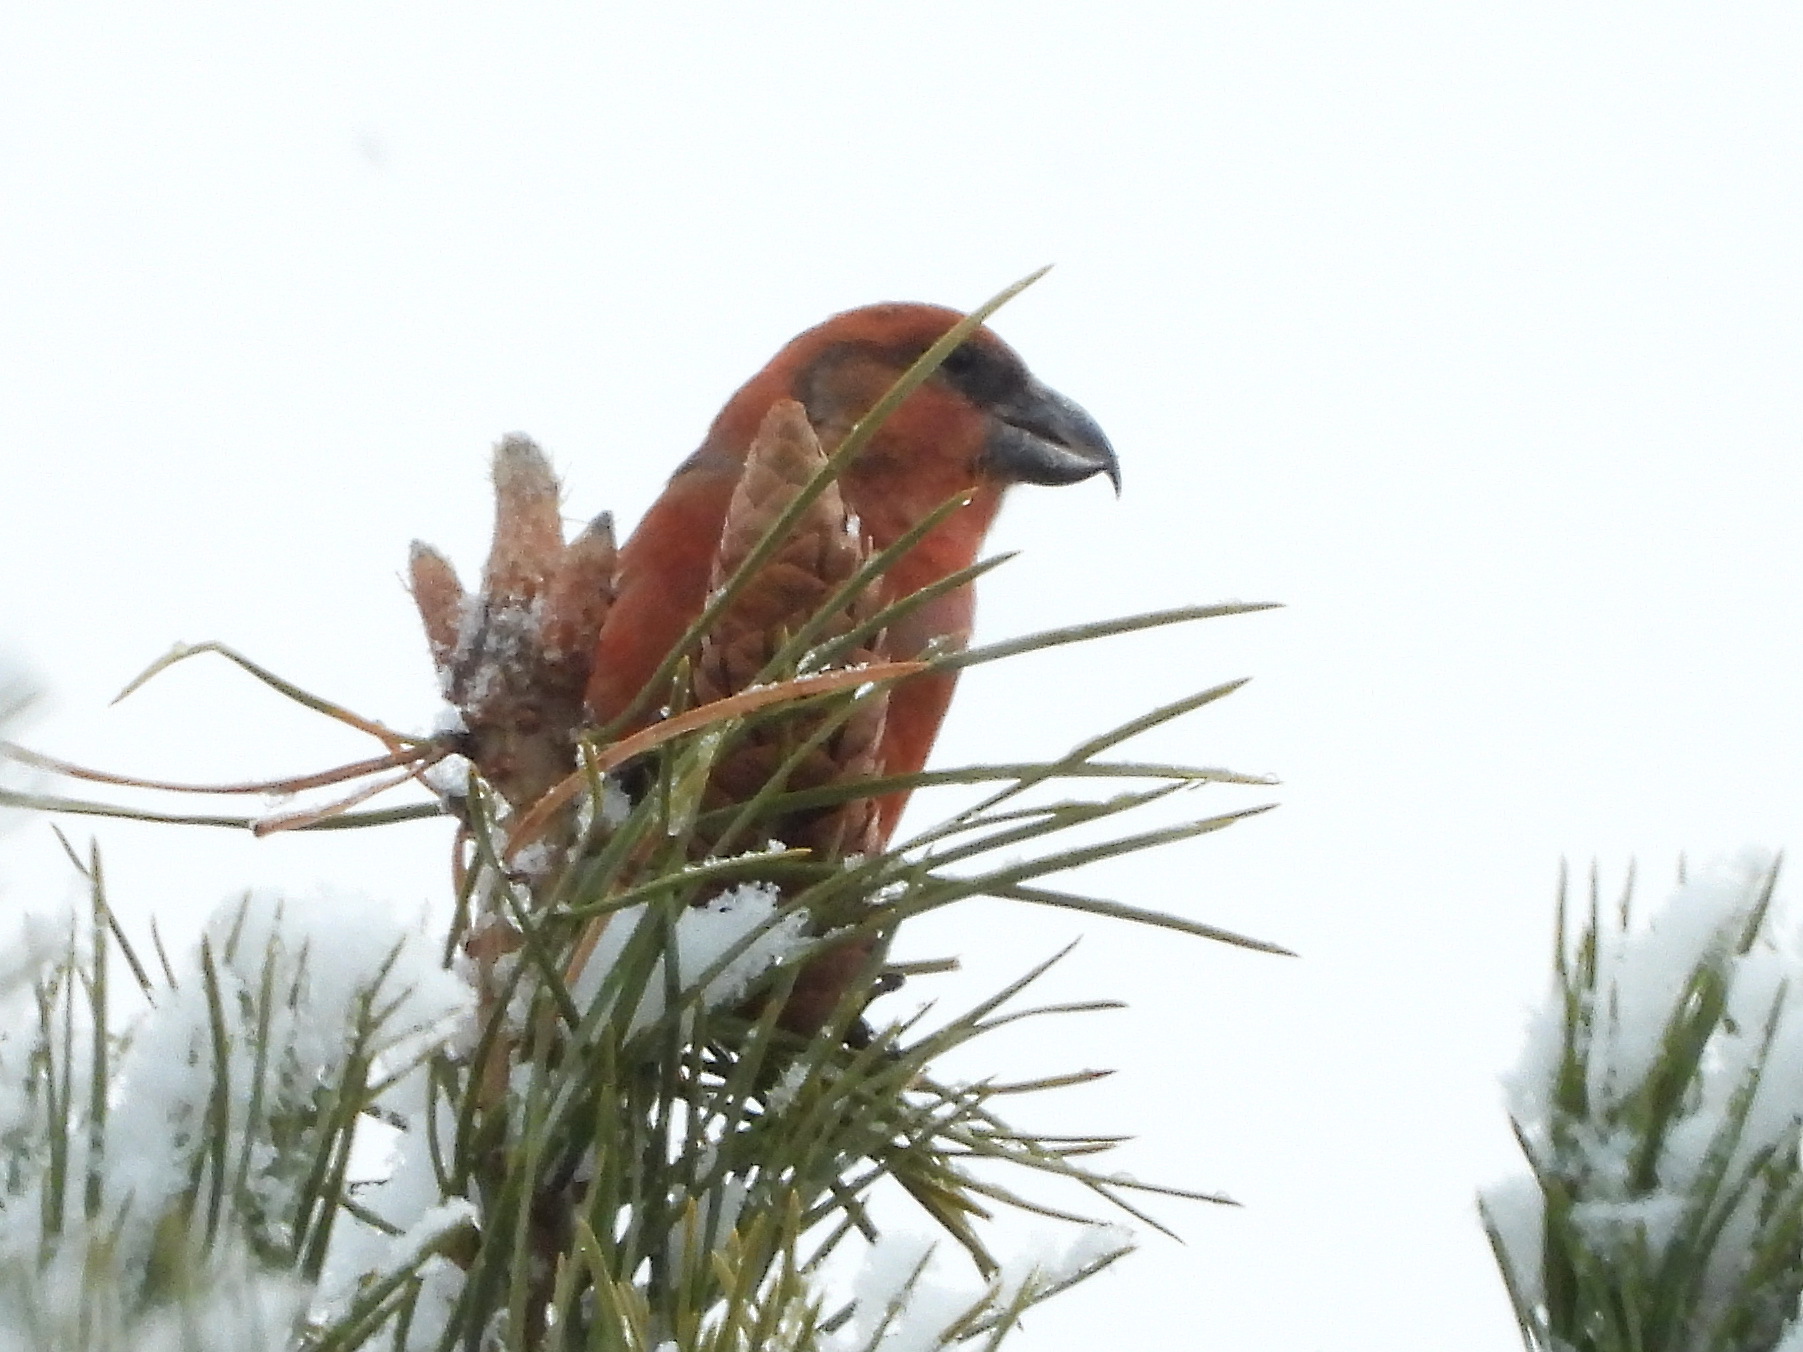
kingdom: Animalia
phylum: Chordata
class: Aves
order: Passeriformes
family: Fringillidae
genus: Loxia
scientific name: Loxia pytyopsittacus
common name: Parrot crossbill
